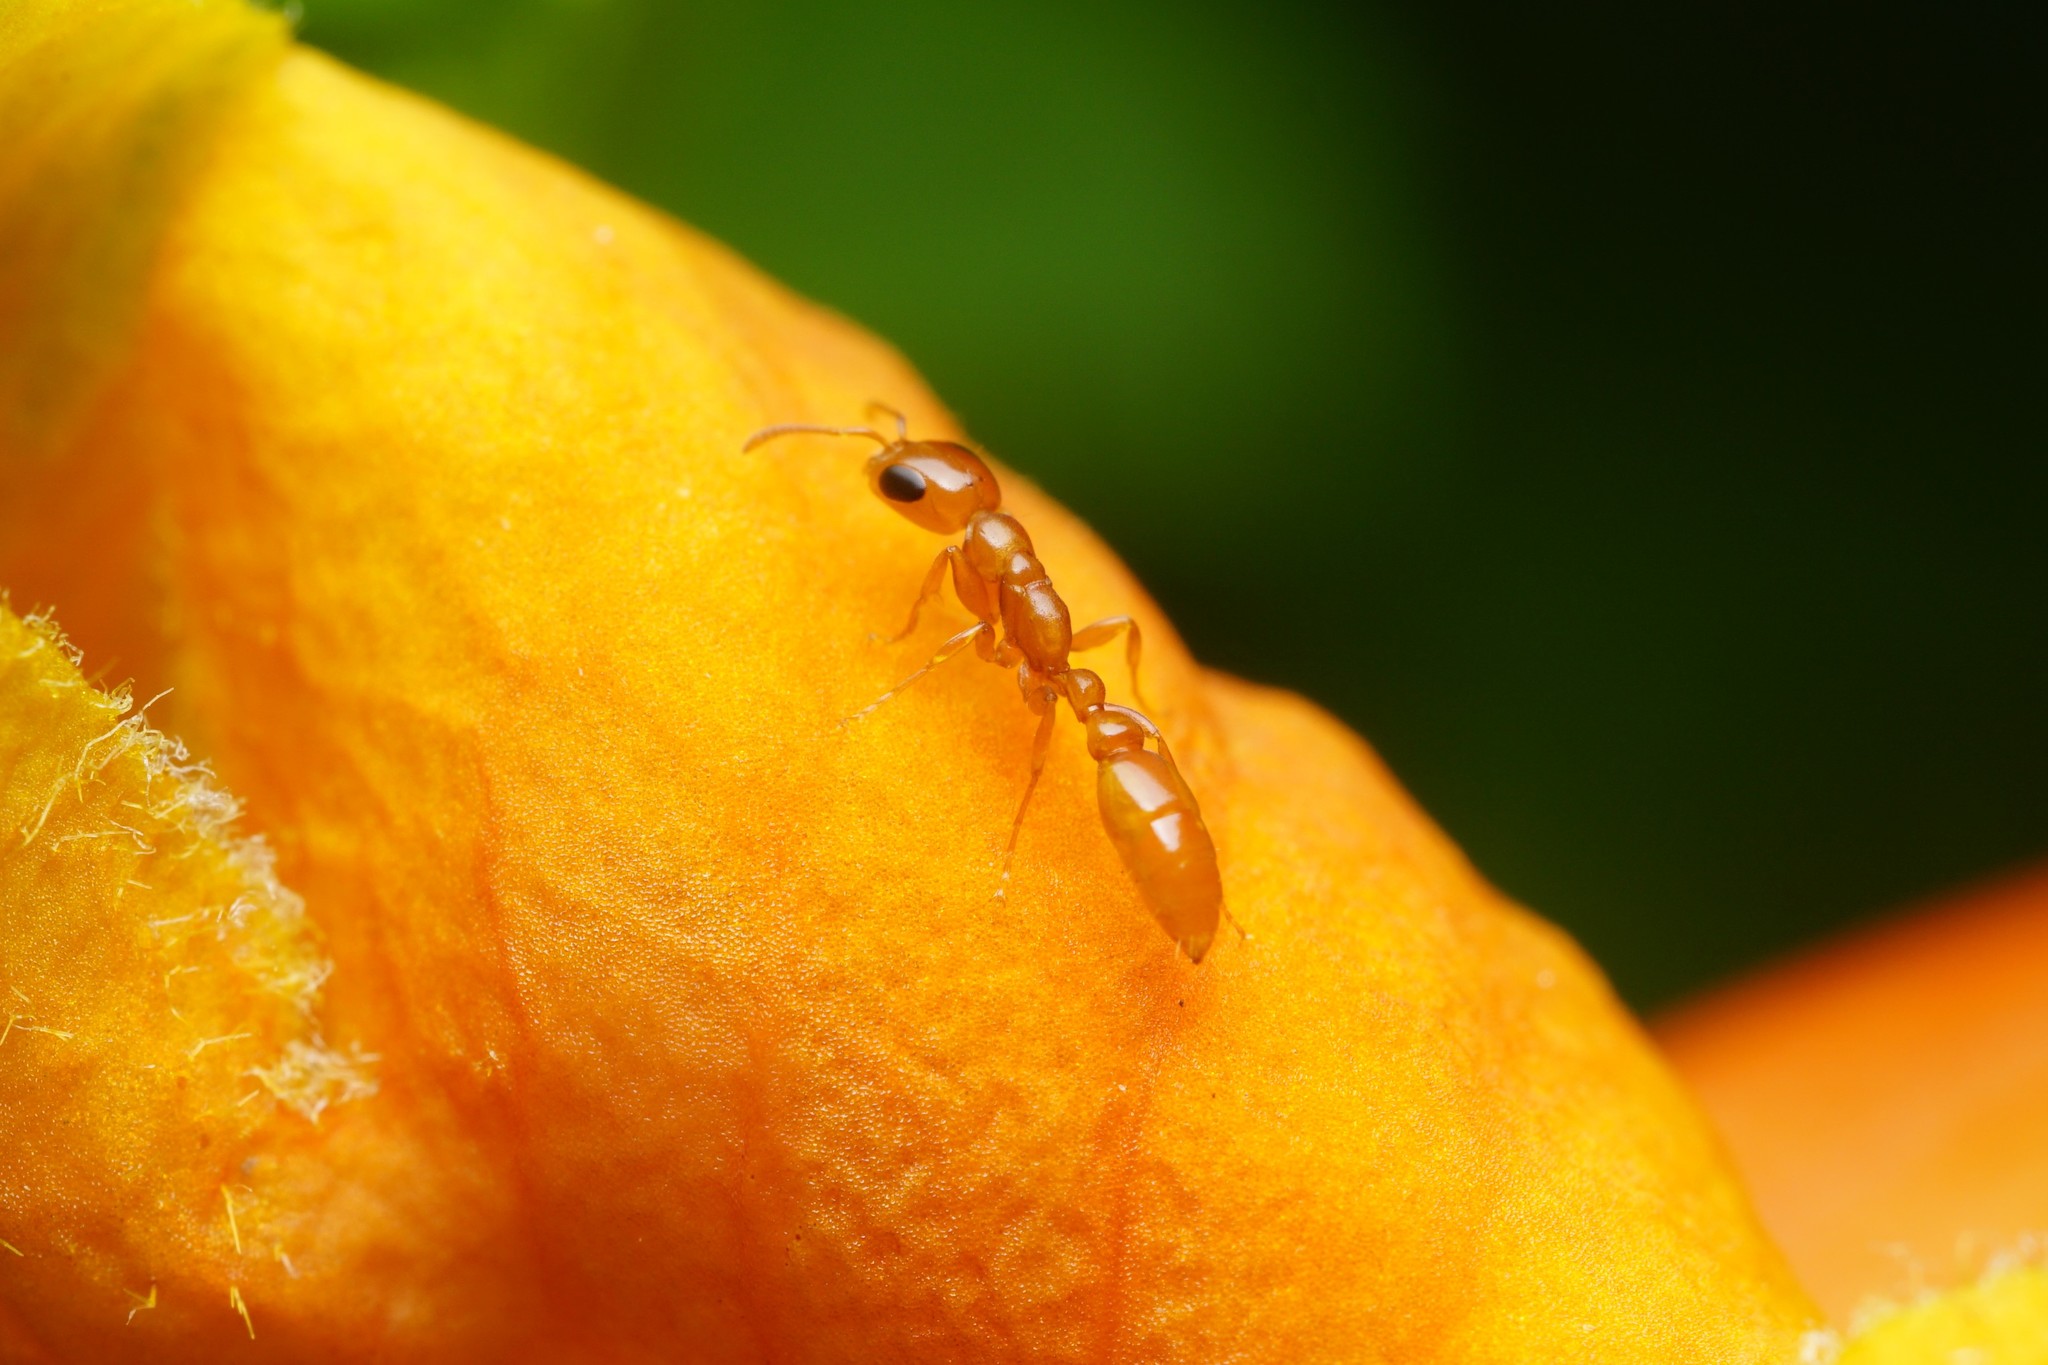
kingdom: Animalia
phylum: Arthropoda
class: Insecta
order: Hymenoptera
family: Formicidae
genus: Pseudomyrmex
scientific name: Pseudomyrmex pallidus
